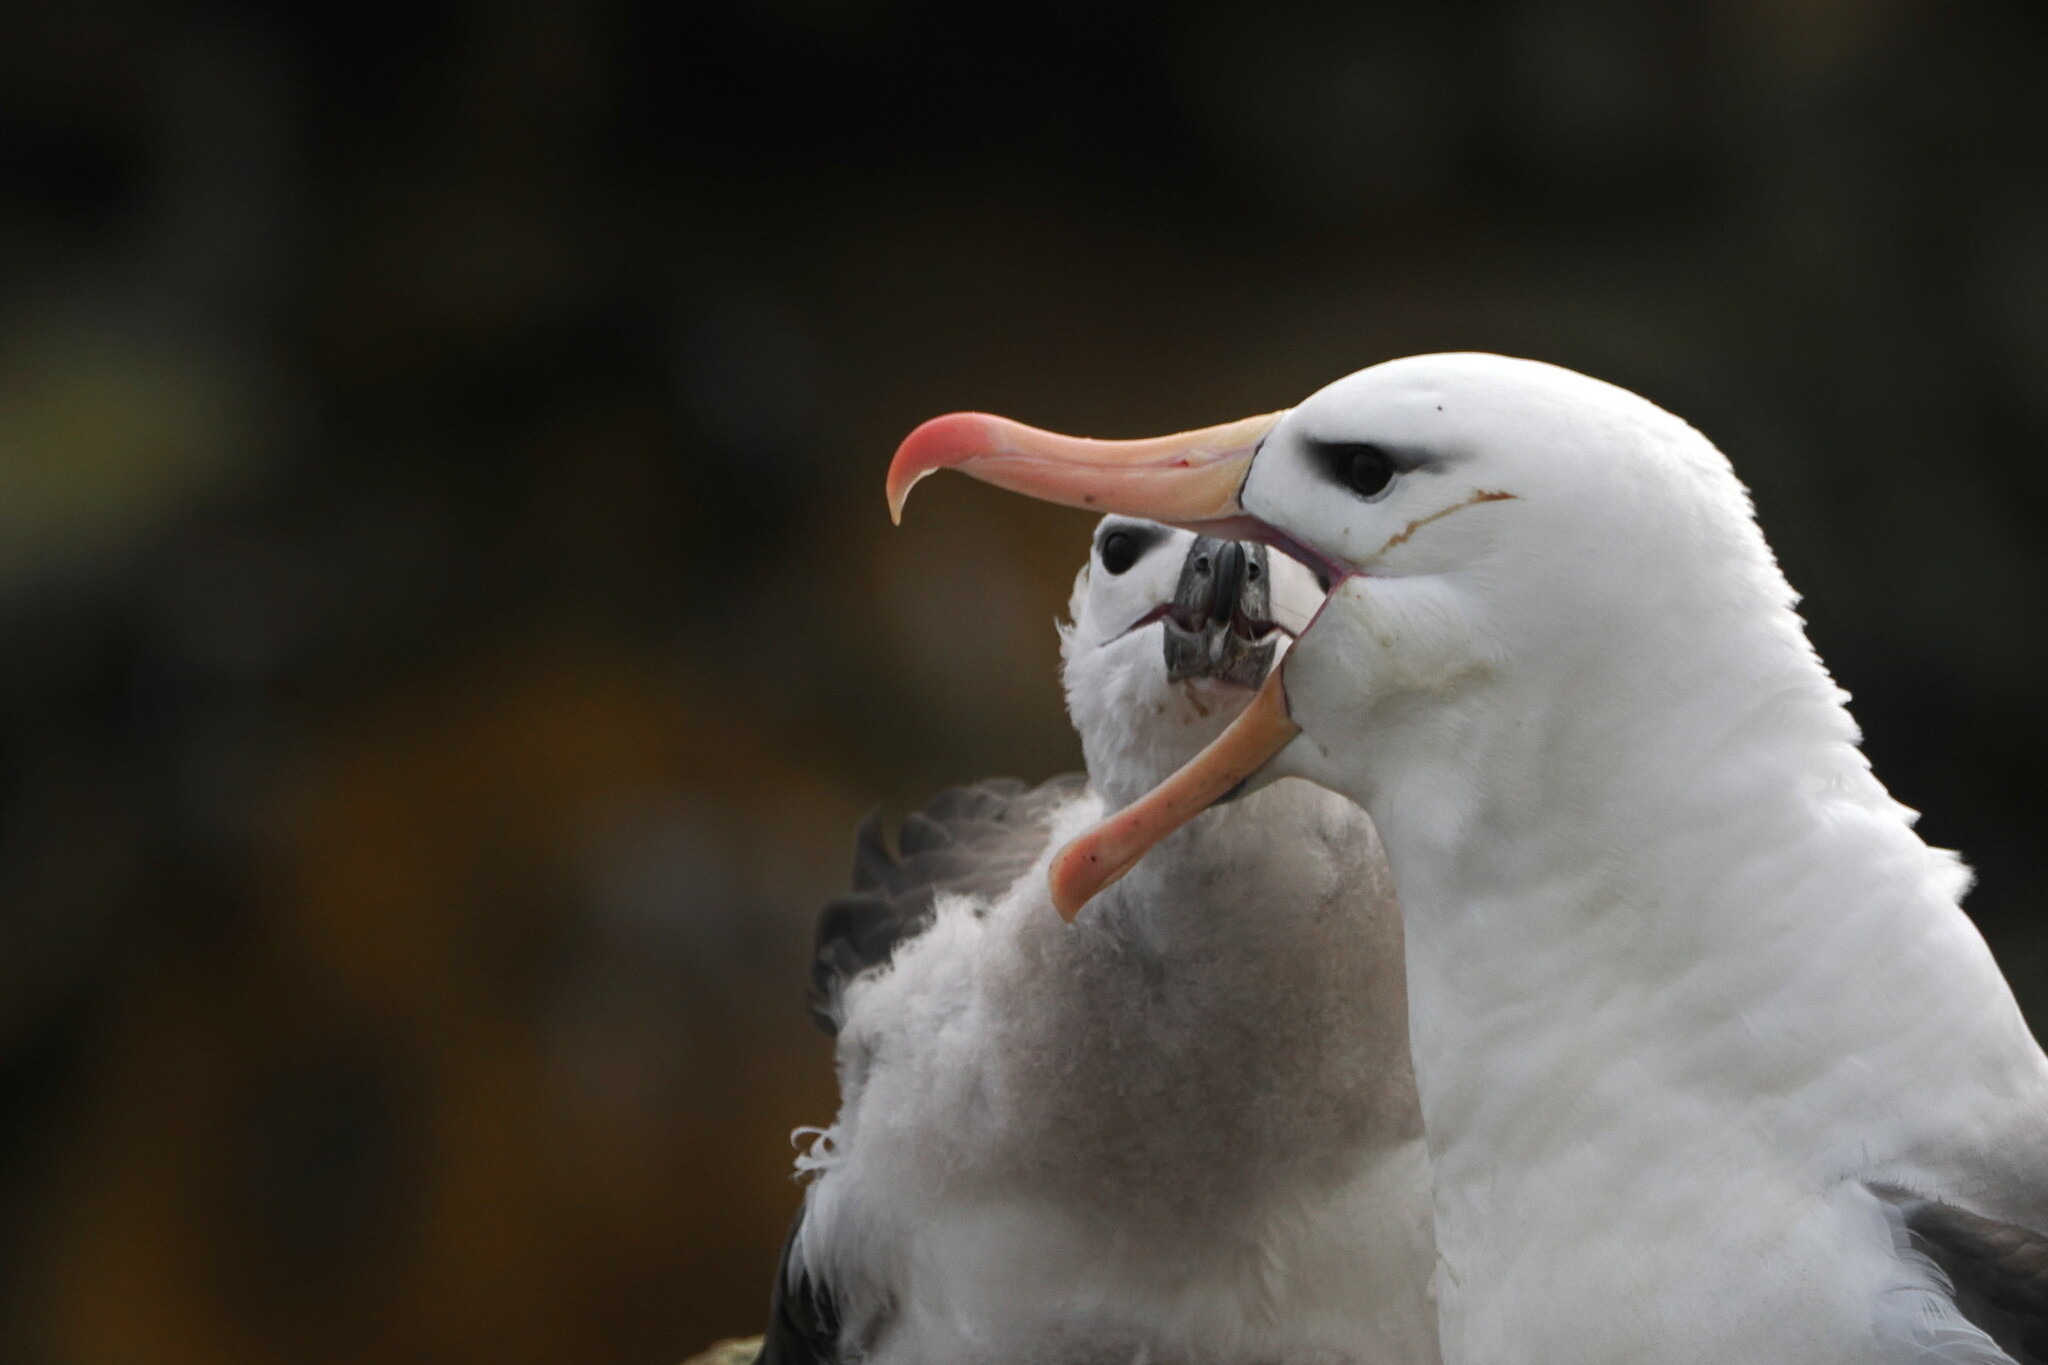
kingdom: Animalia
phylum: Chordata
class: Aves
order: Procellariiformes
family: Diomedeidae
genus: Thalassarche
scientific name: Thalassarche melanophris
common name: Black-browed albatross
